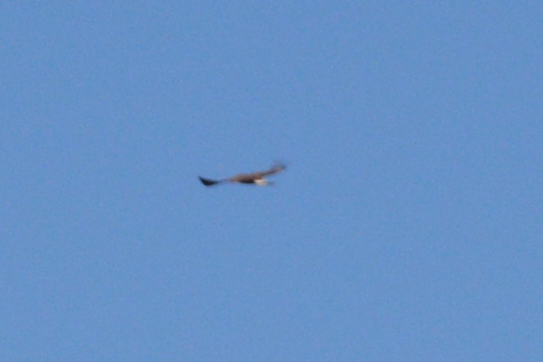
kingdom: Animalia
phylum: Chordata
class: Aves
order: Accipitriformes
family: Accipitridae
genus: Aquila
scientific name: Aquila chrysaetos
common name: Golden eagle
